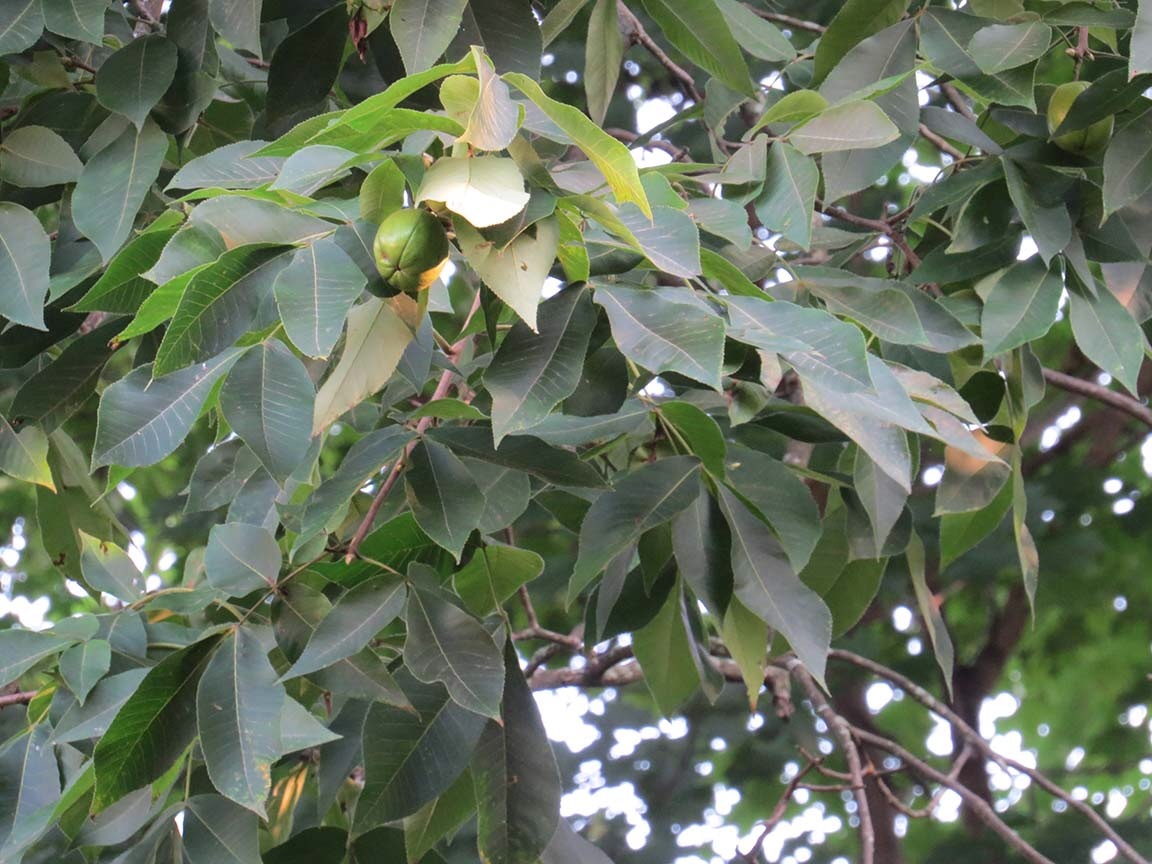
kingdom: Plantae
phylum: Tracheophyta
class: Magnoliopsida
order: Fagales
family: Juglandaceae
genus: Carya
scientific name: Carya ovata
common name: Shagbark hickory
